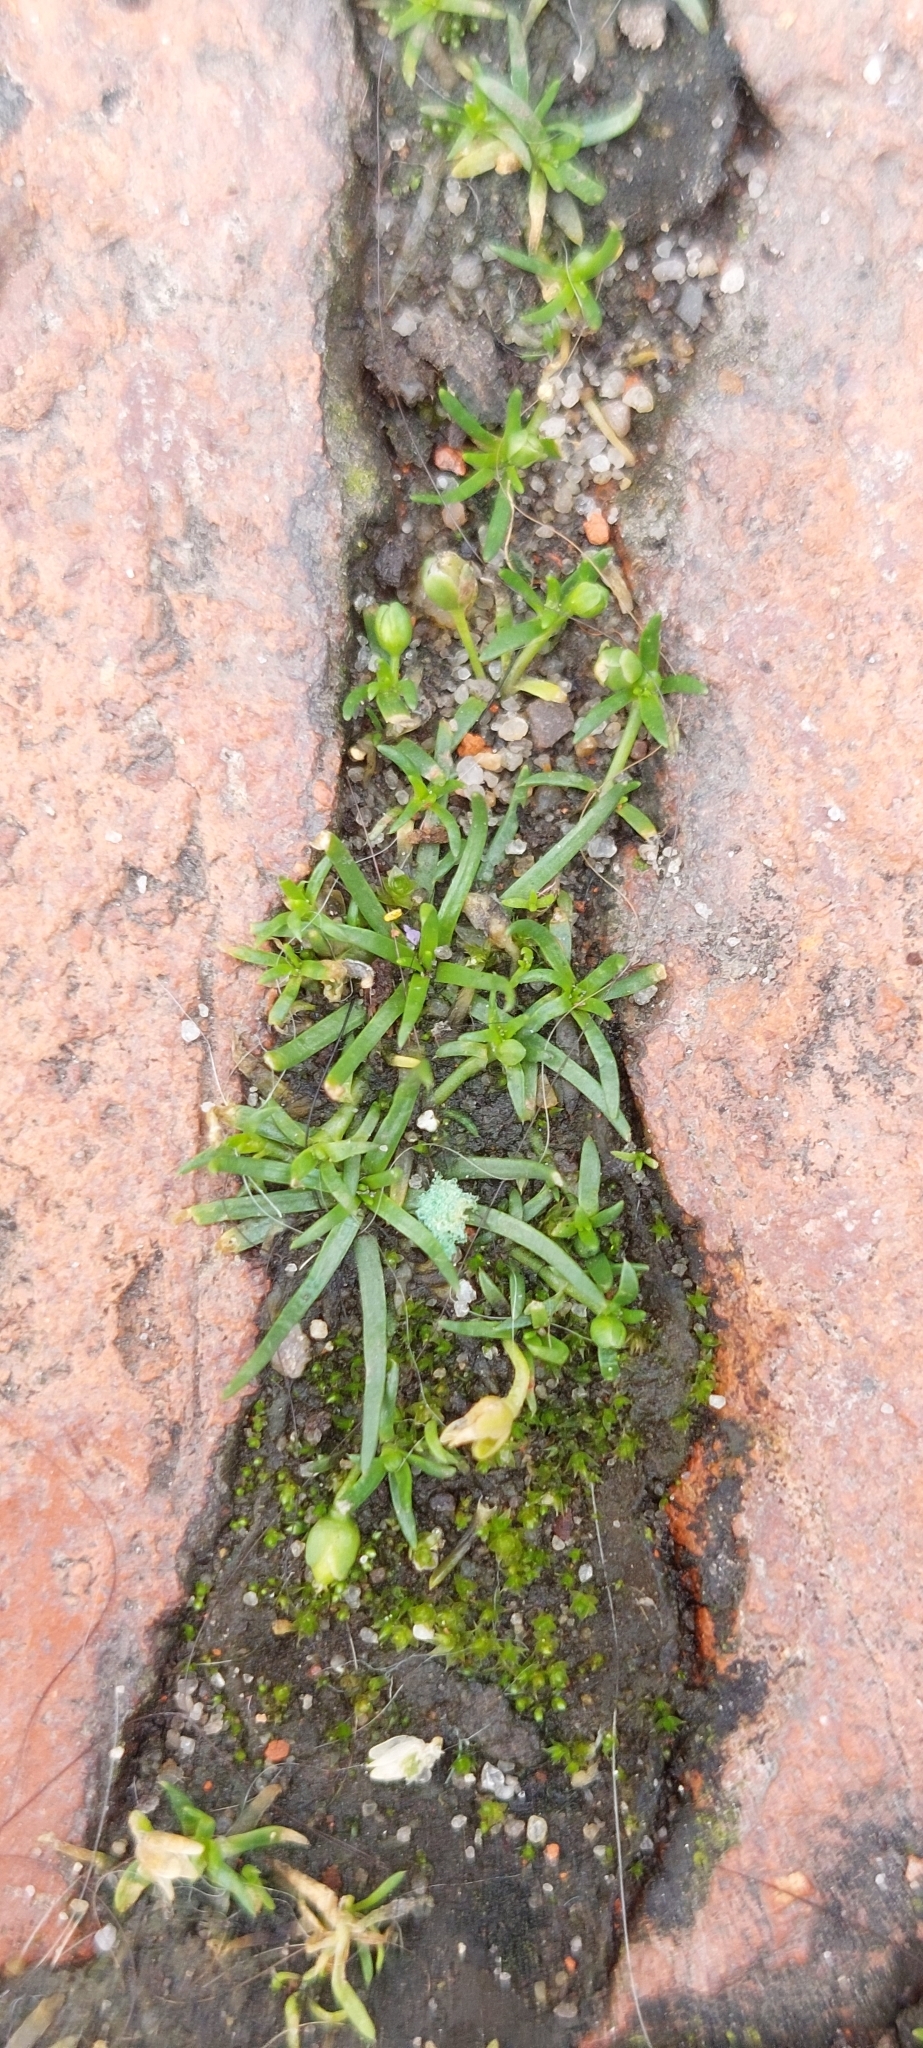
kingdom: Plantae
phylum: Tracheophyta
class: Magnoliopsida
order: Caryophyllales
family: Caryophyllaceae
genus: Sagina
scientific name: Sagina procumbens
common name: Procumbent pearlwort
